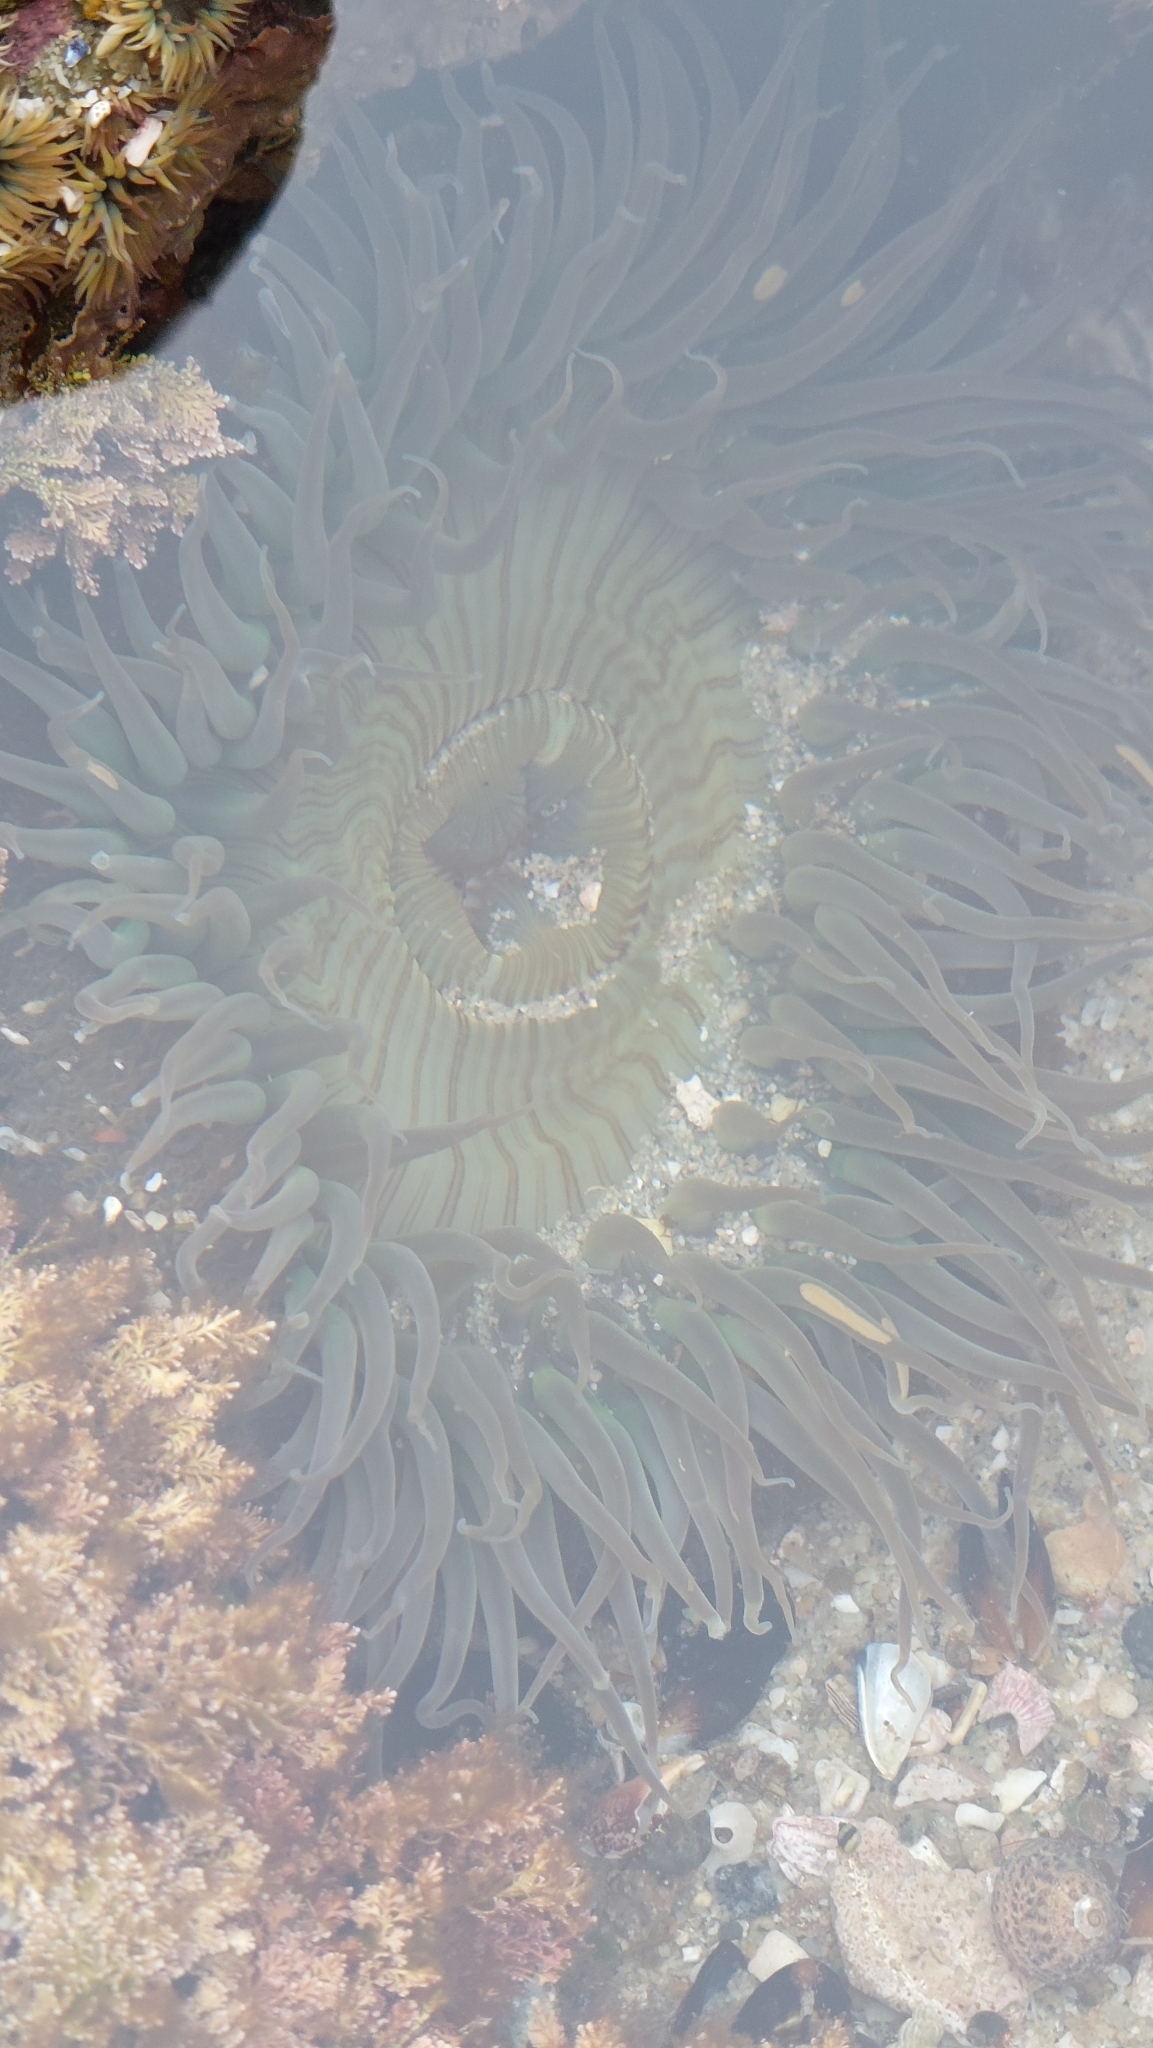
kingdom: Animalia
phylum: Cnidaria
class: Anthozoa
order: Actiniaria
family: Actiniidae
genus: Anthopleura
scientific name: Anthopleura sola
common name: Sun anemone
